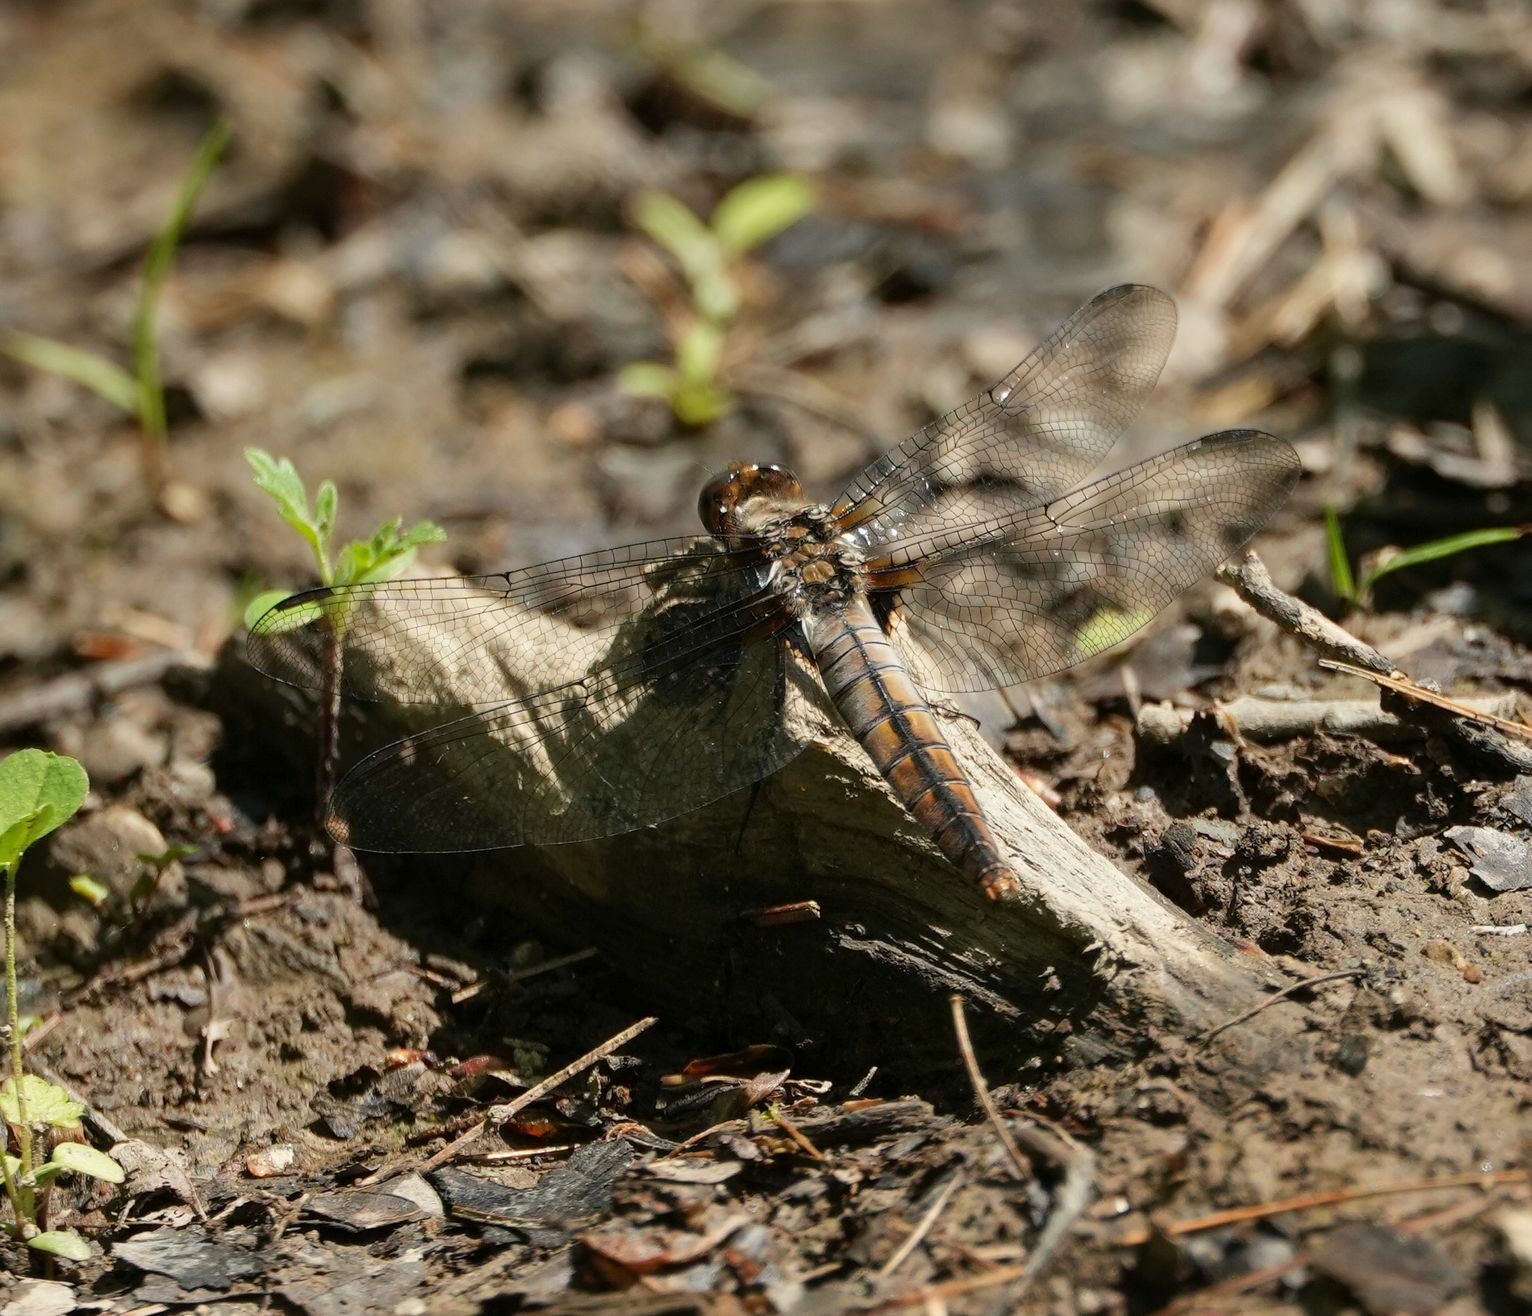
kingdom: Animalia
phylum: Arthropoda
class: Insecta
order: Odonata
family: Libellulidae
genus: Ladona
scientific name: Ladona julia
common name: Chalk-fronted corporal
